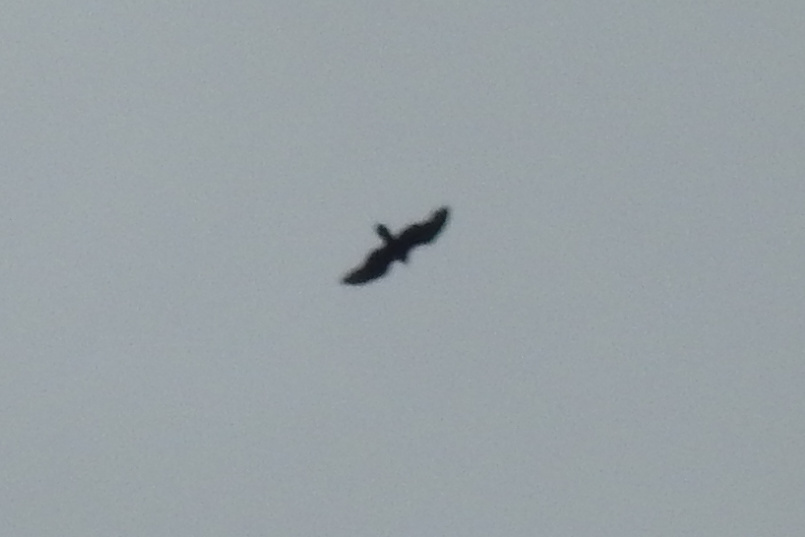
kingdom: Animalia
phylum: Chordata
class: Aves
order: Accipitriformes
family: Pandionidae
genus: Pandion
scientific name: Pandion haliaetus
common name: Osprey
